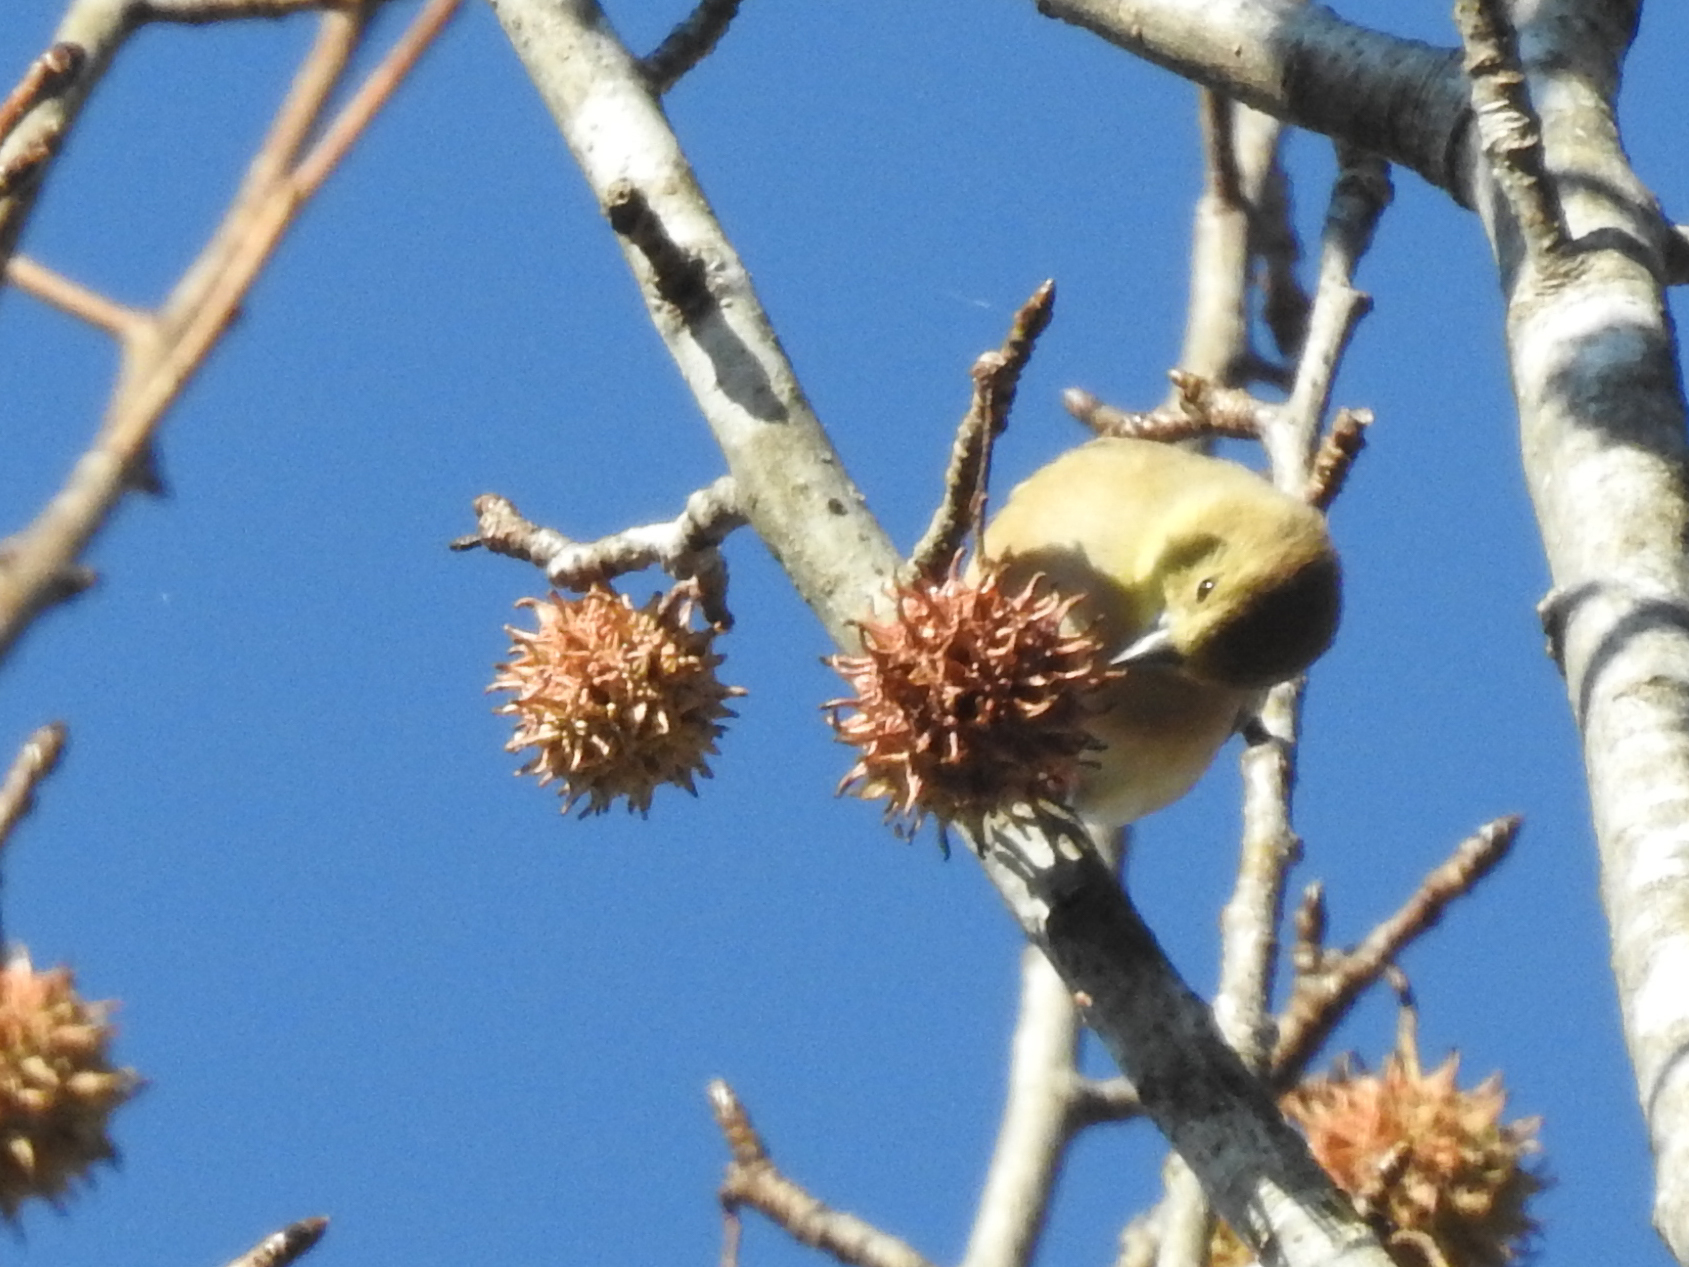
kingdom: Animalia
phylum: Chordata
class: Aves
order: Passeriformes
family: Fringillidae
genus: Spinus
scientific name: Spinus tristis
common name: American goldfinch
